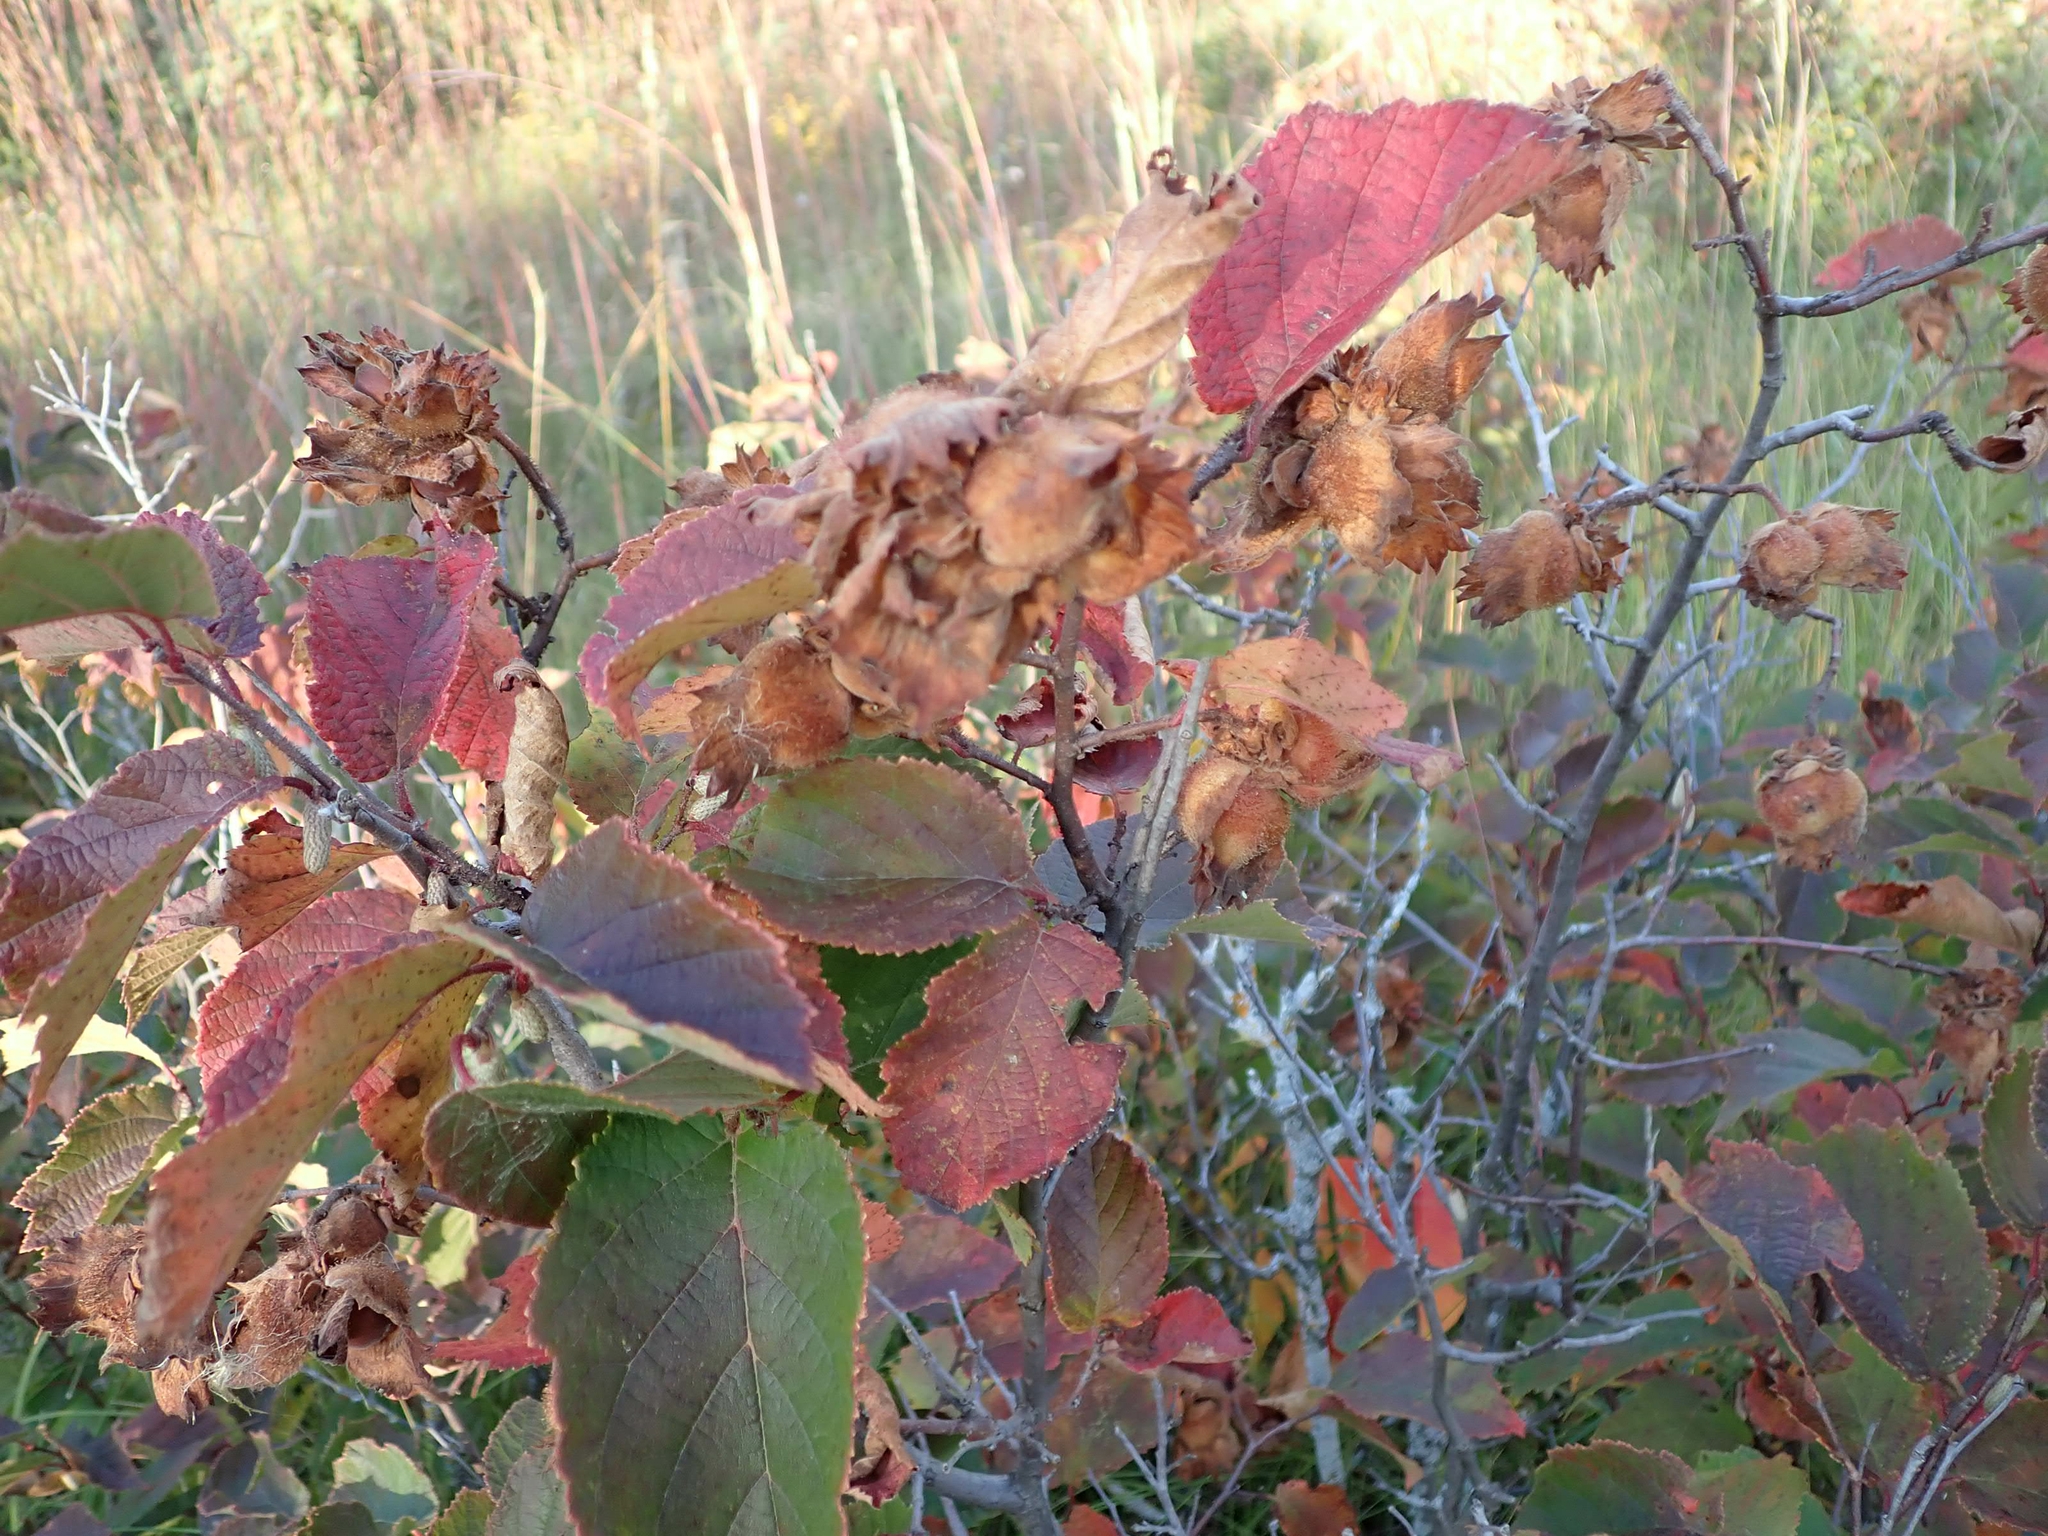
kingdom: Plantae
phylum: Tracheophyta
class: Magnoliopsida
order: Fagales
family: Betulaceae
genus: Corylus
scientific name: Corylus americana
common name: American hazel
